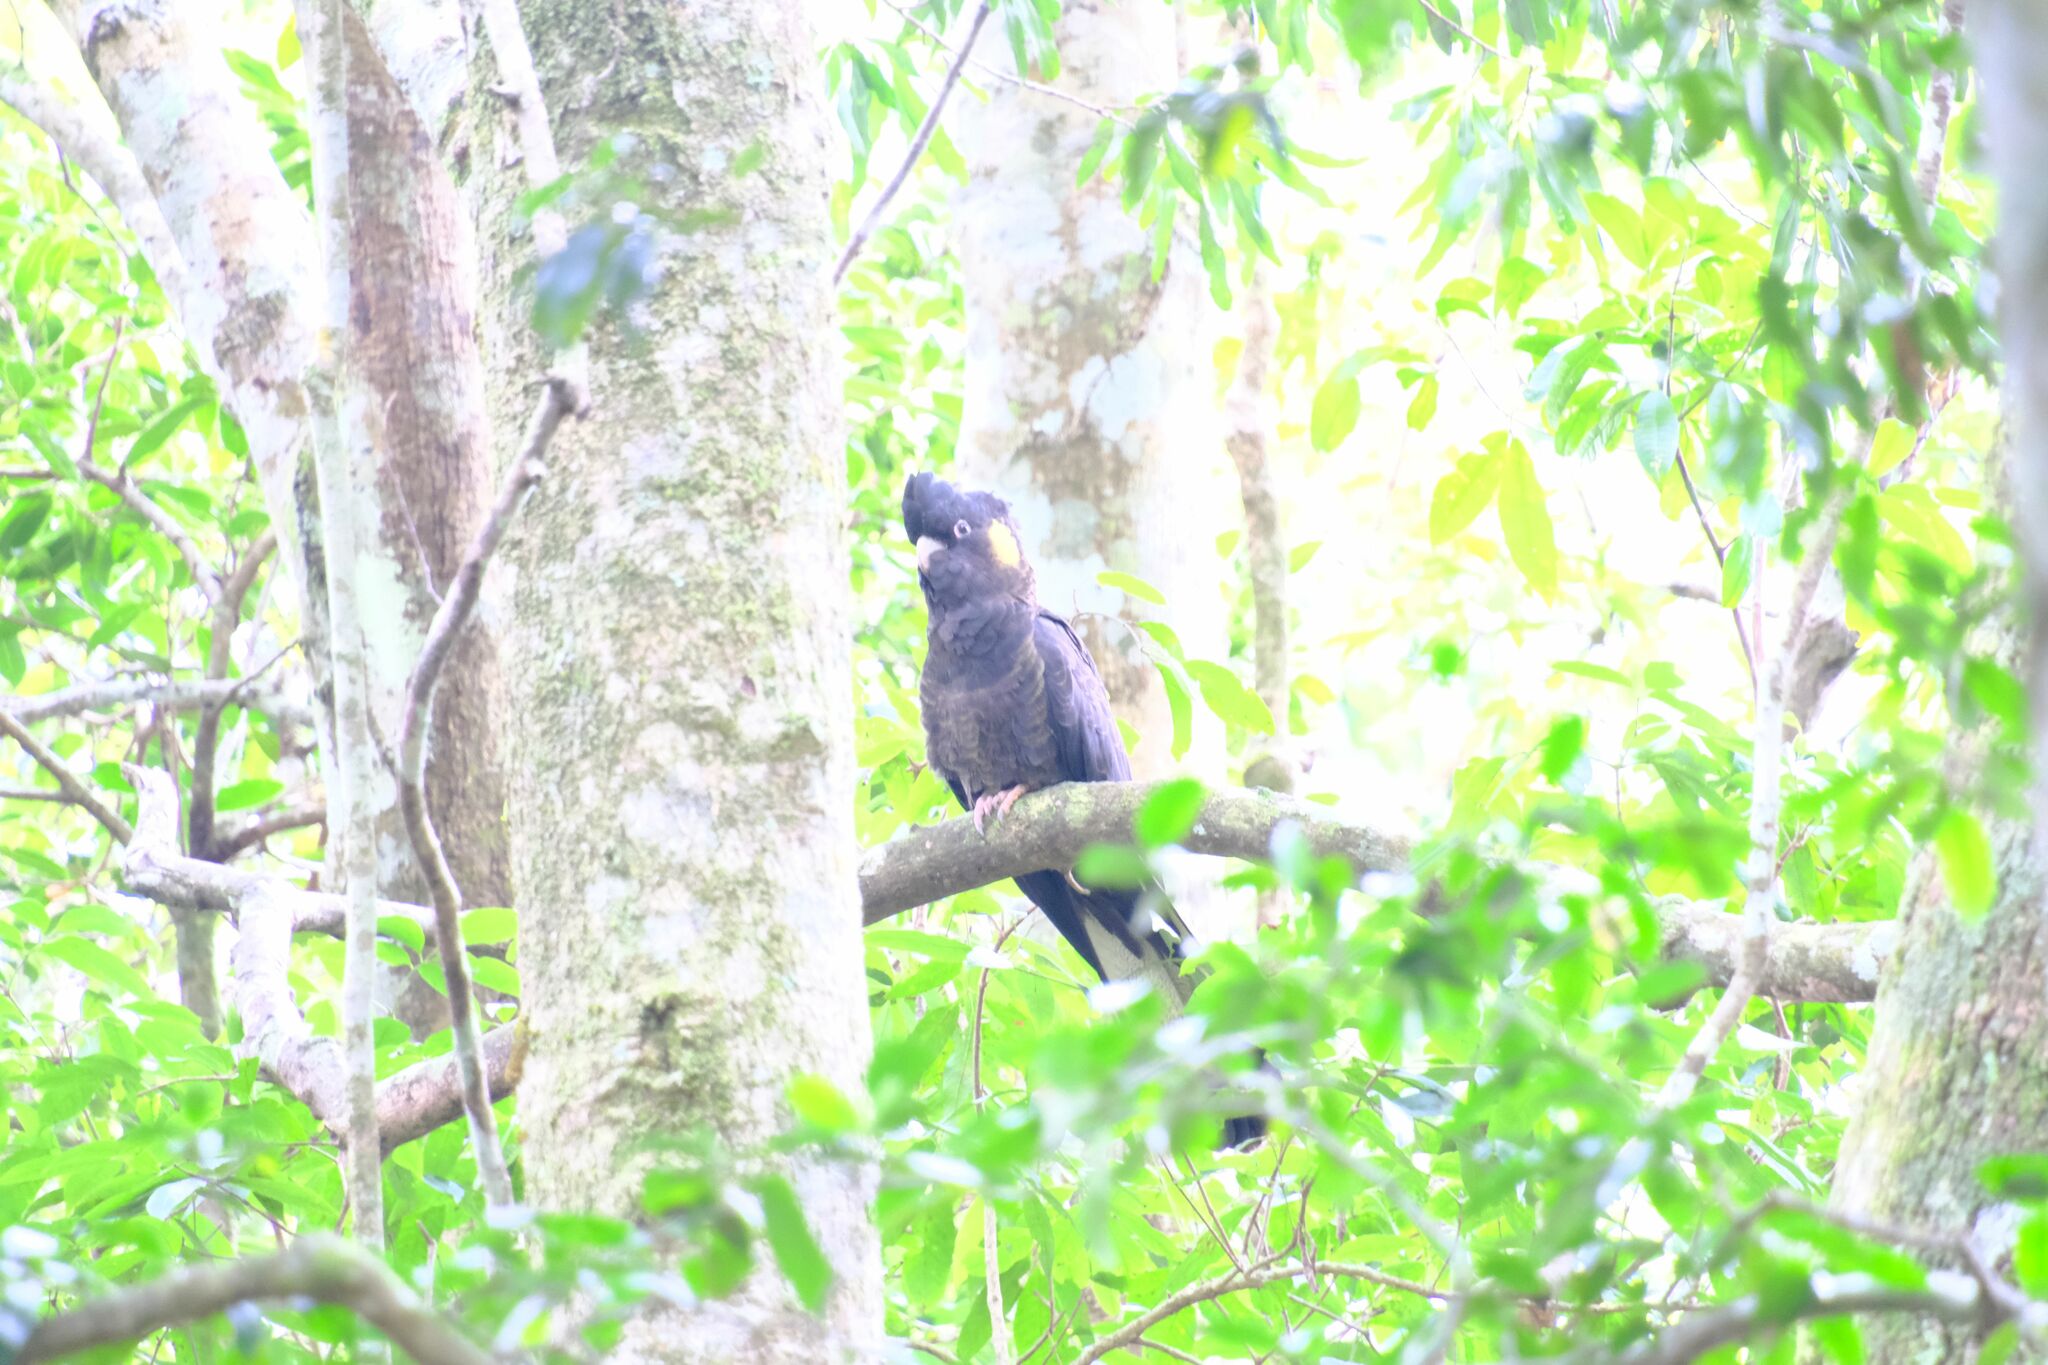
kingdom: Animalia
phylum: Chordata
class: Aves
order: Psittaciformes
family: Cacatuidae
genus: Zanda
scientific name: Zanda funerea
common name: Yellow-tailed black-cockatoo
